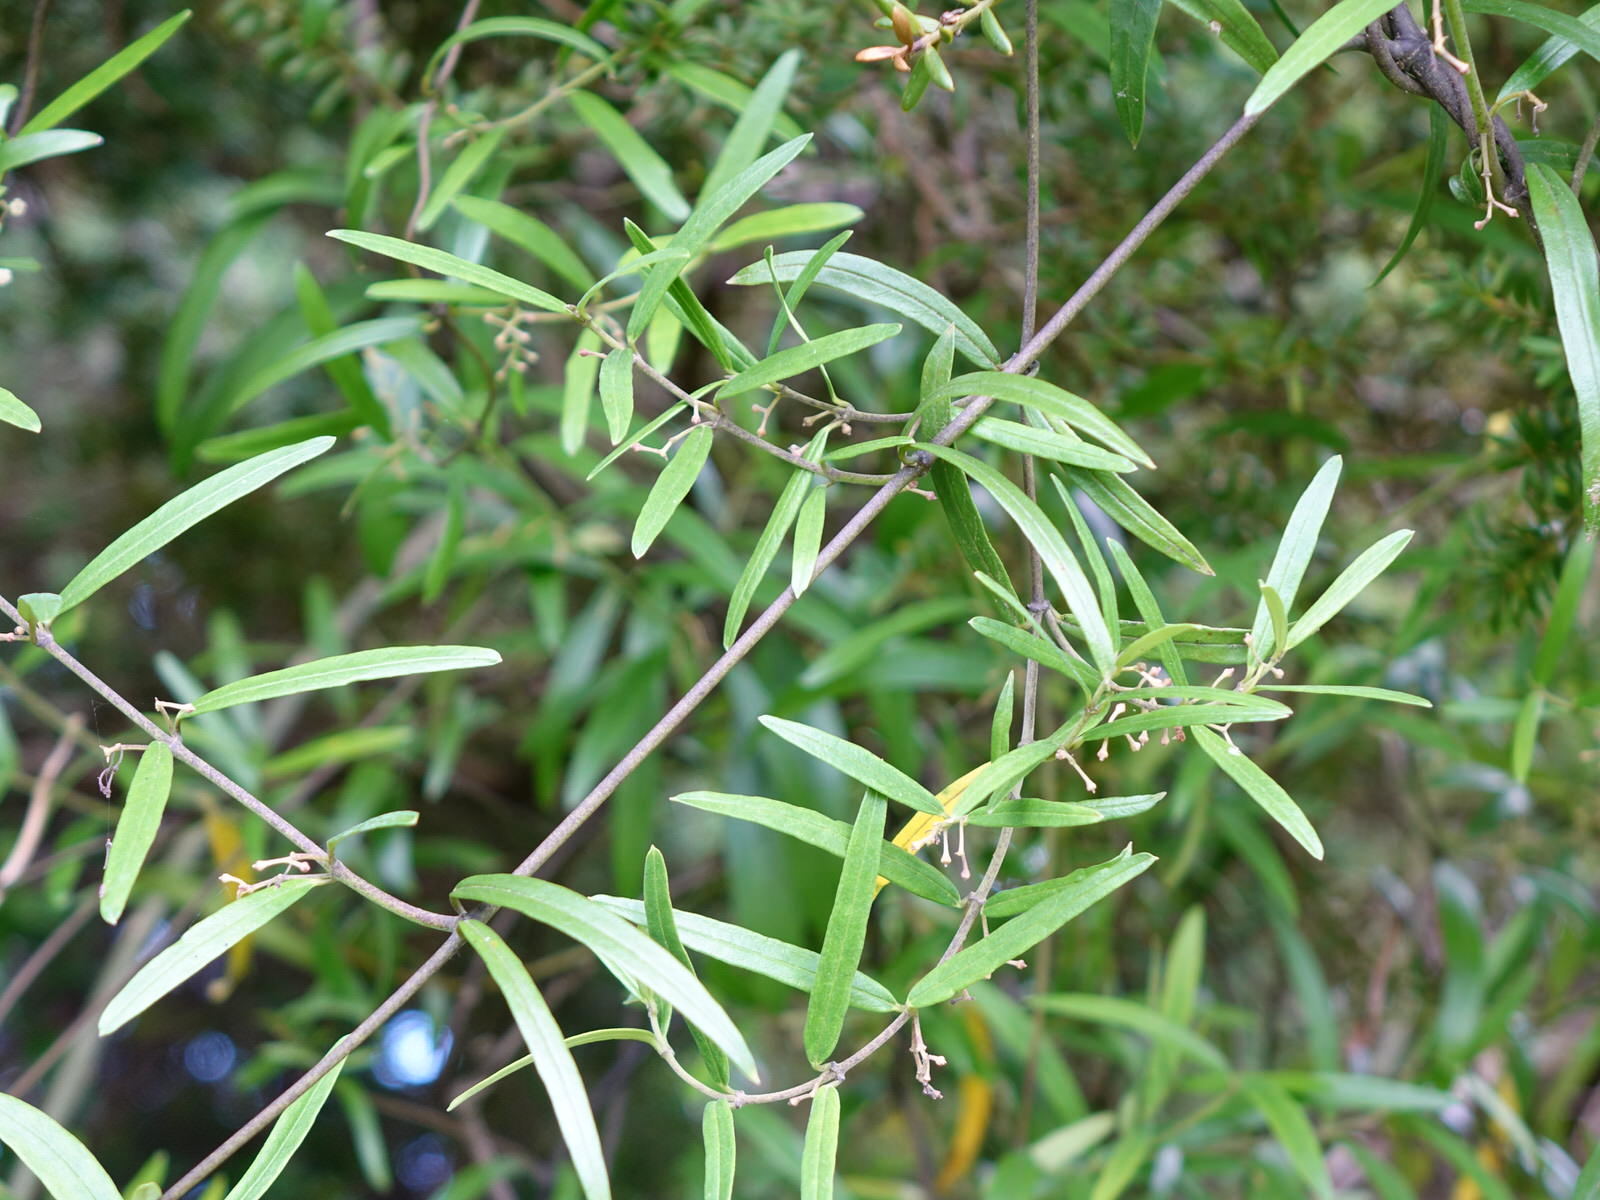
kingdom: Plantae
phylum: Tracheophyta
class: Magnoliopsida
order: Gentianales
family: Apocynaceae
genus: Parsonsia
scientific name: Parsonsia capsularis
